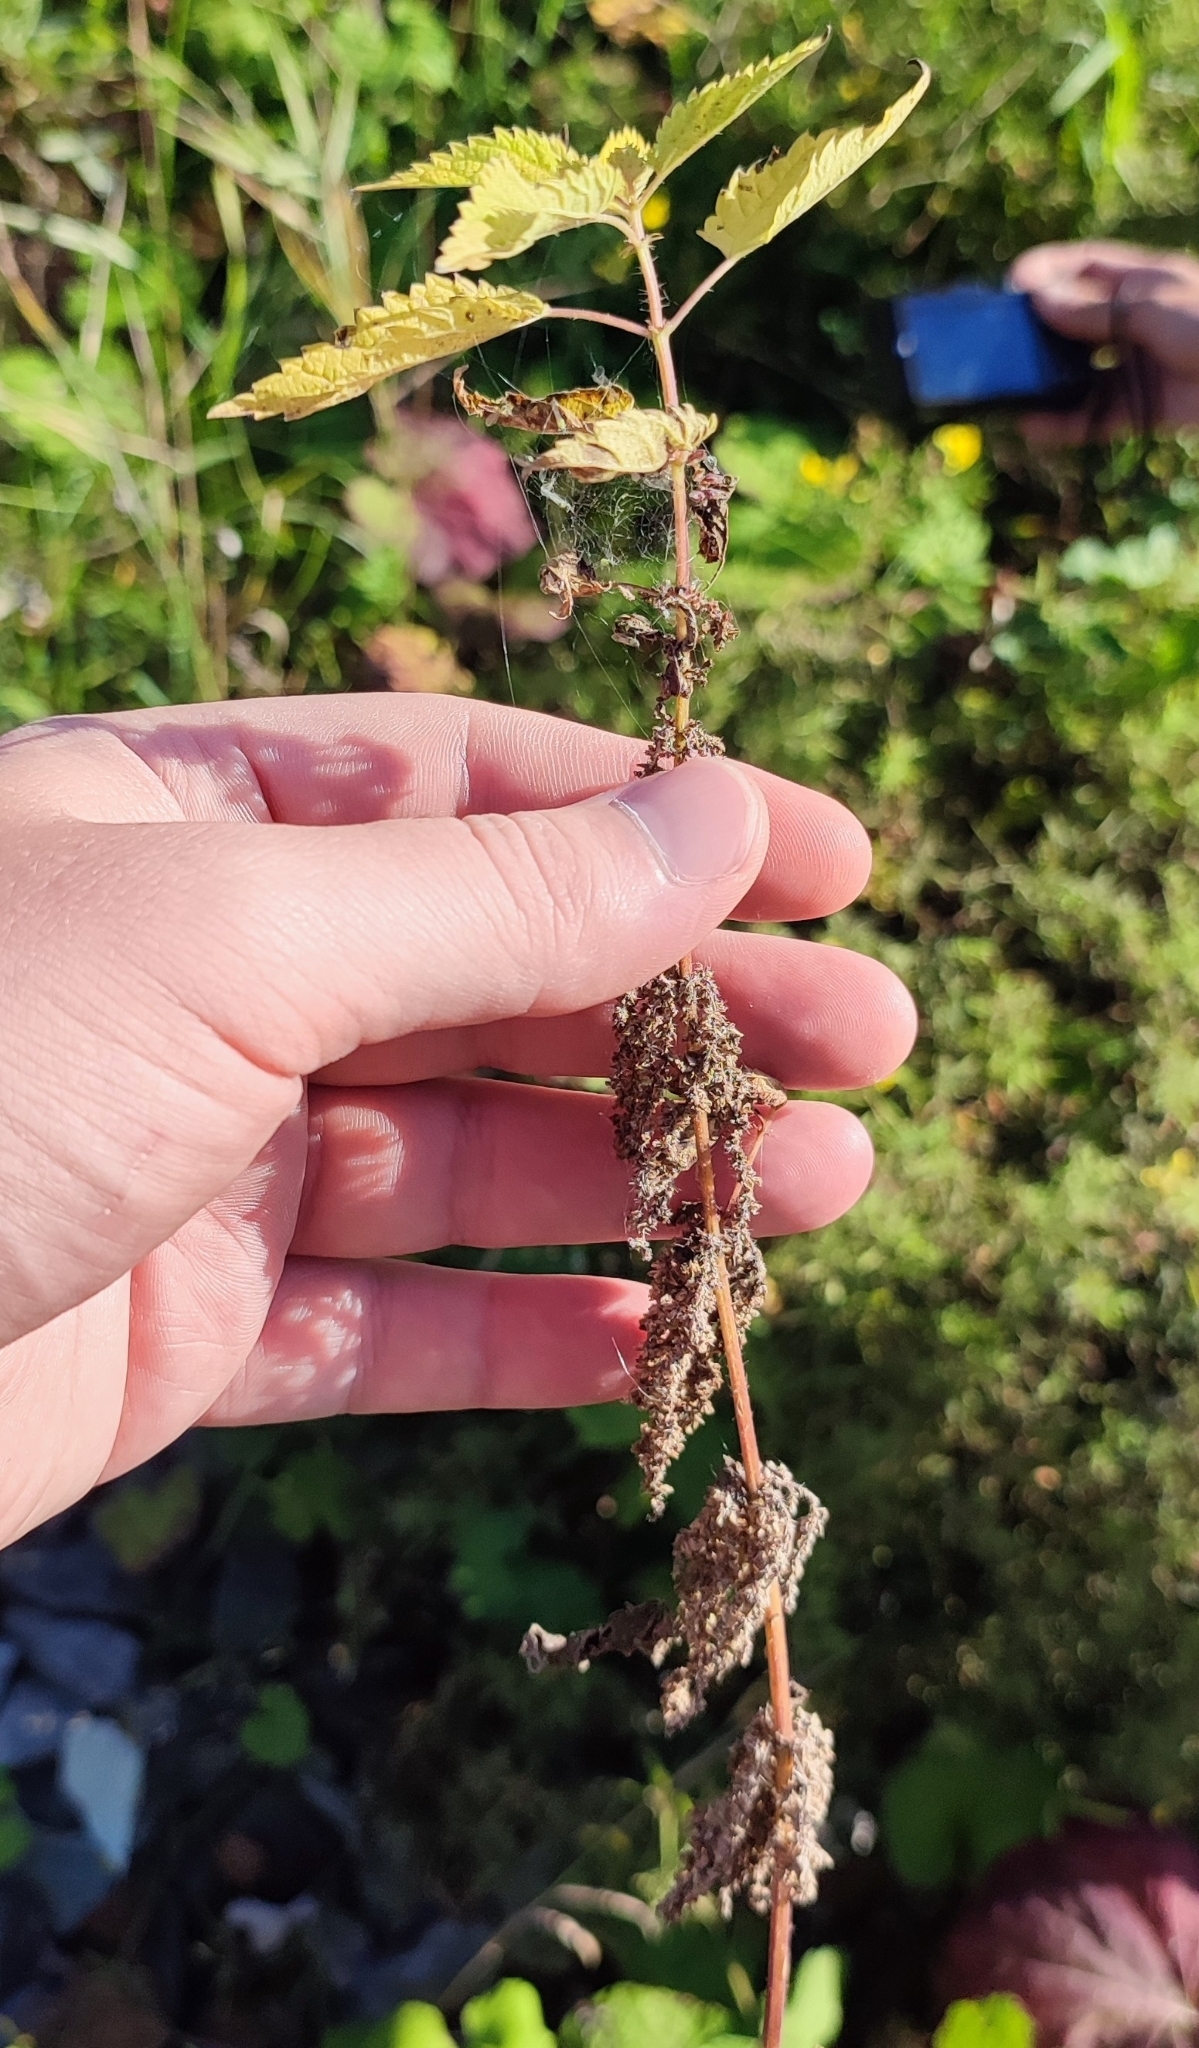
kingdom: Plantae
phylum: Tracheophyta
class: Magnoliopsida
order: Rosales
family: Urticaceae
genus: Urtica
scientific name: Urtica dioica
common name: Common nettle
